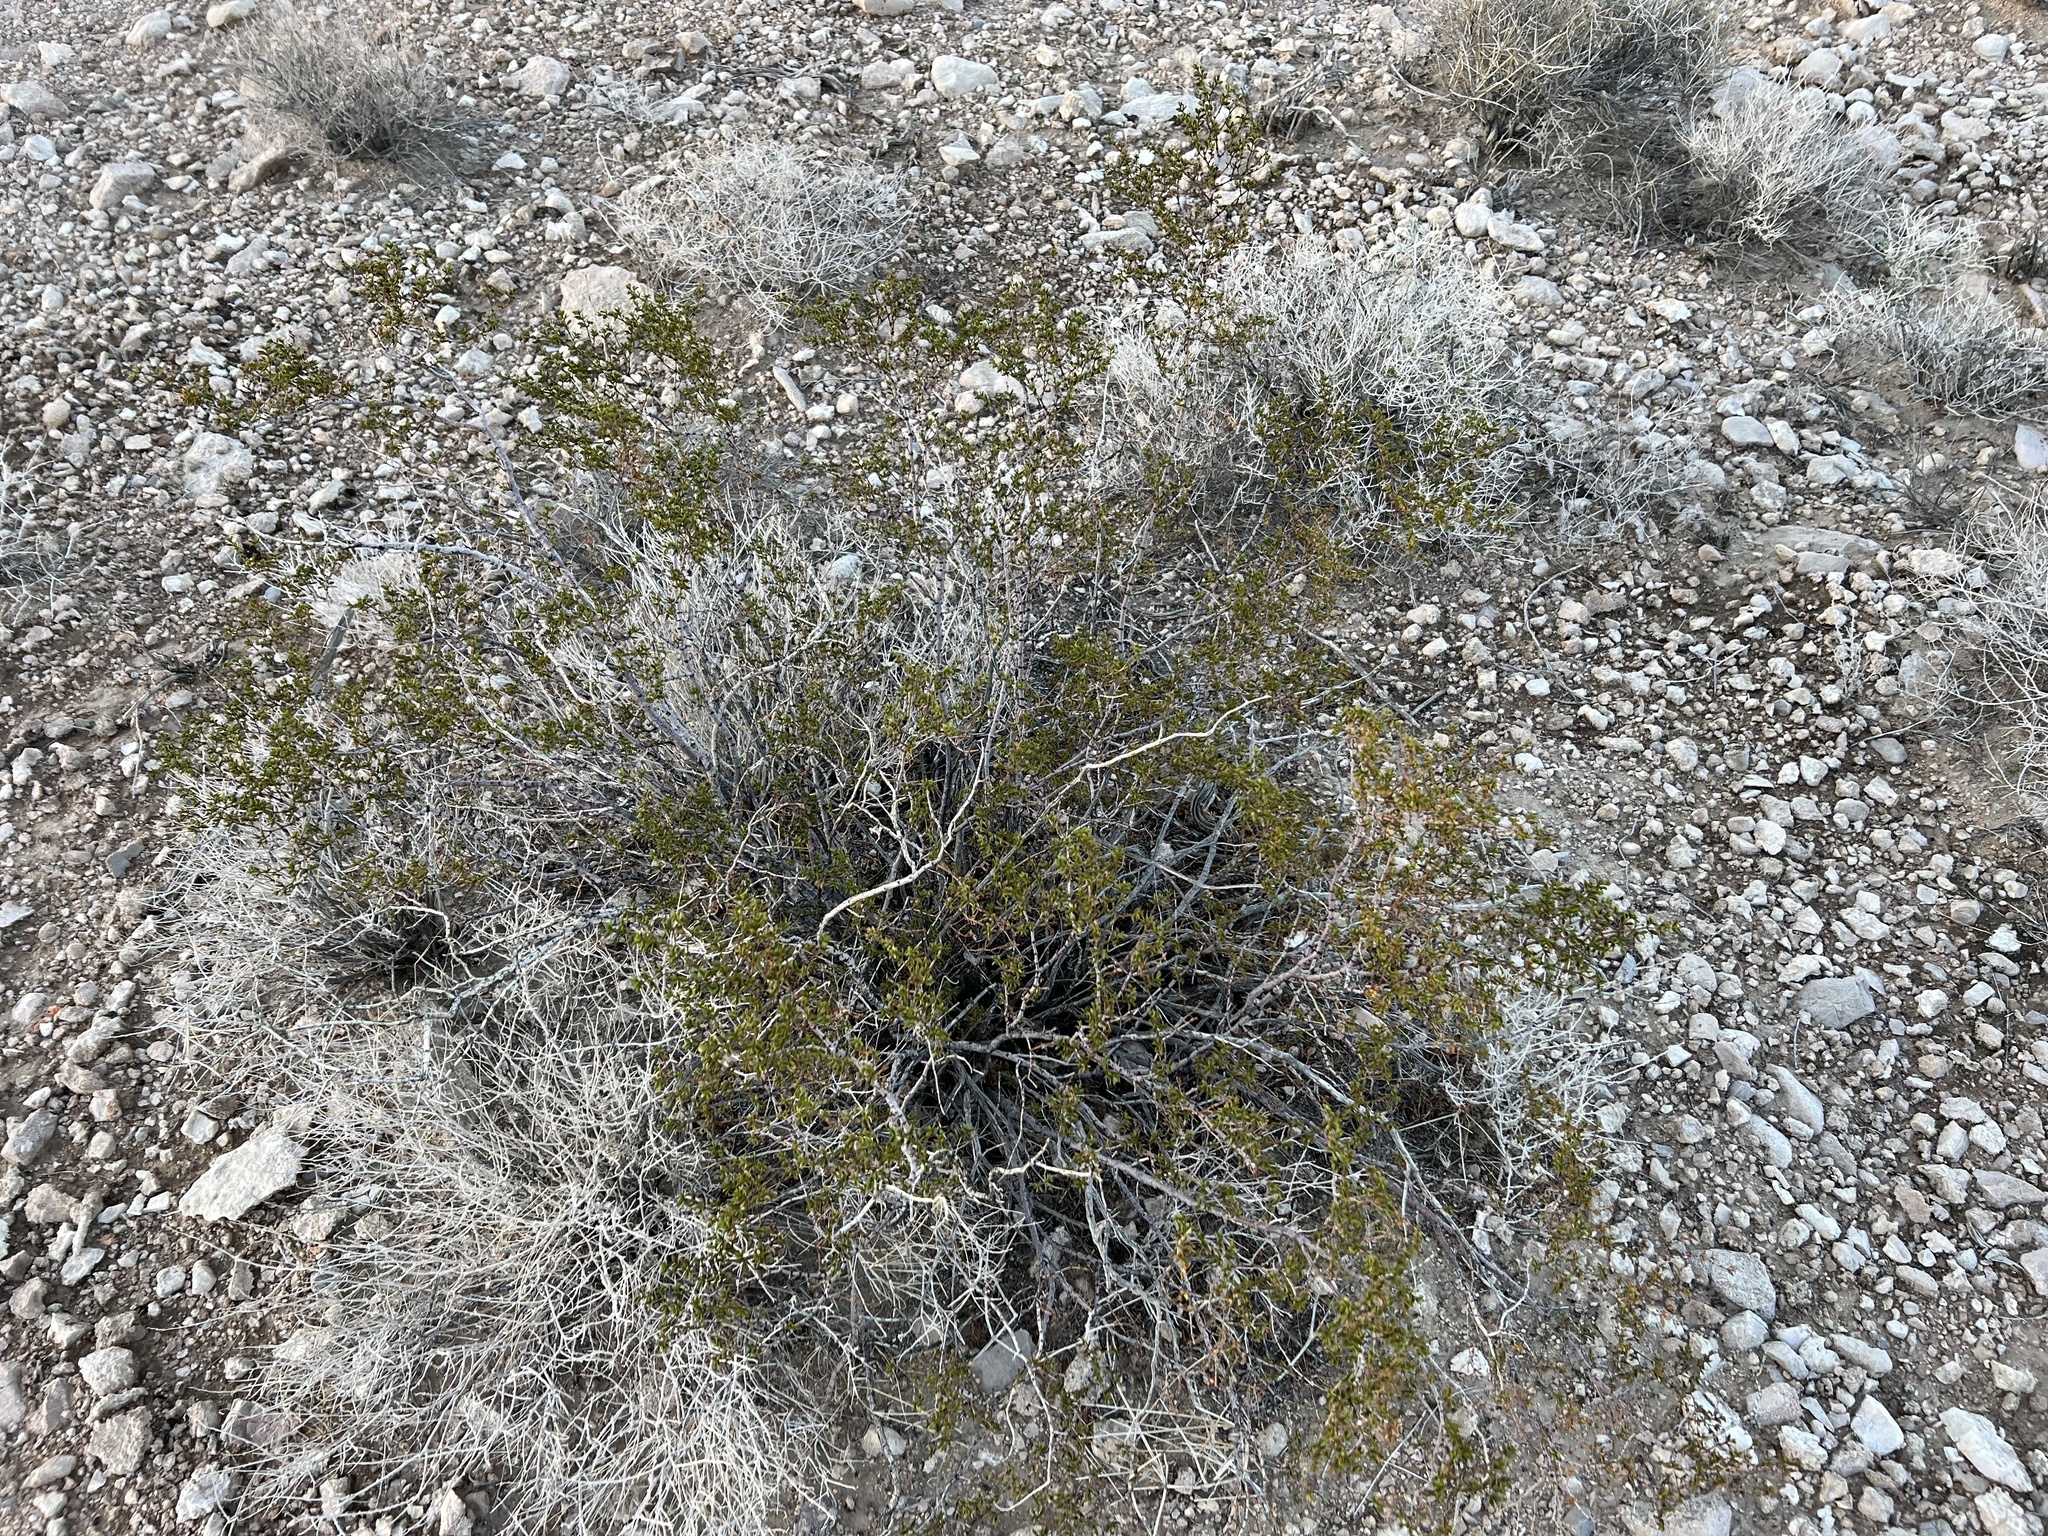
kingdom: Plantae
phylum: Tracheophyta
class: Magnoliopsida
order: Zygophyllales
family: Zygophyllaceae
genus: Larrea
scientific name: Larrea tridentata
